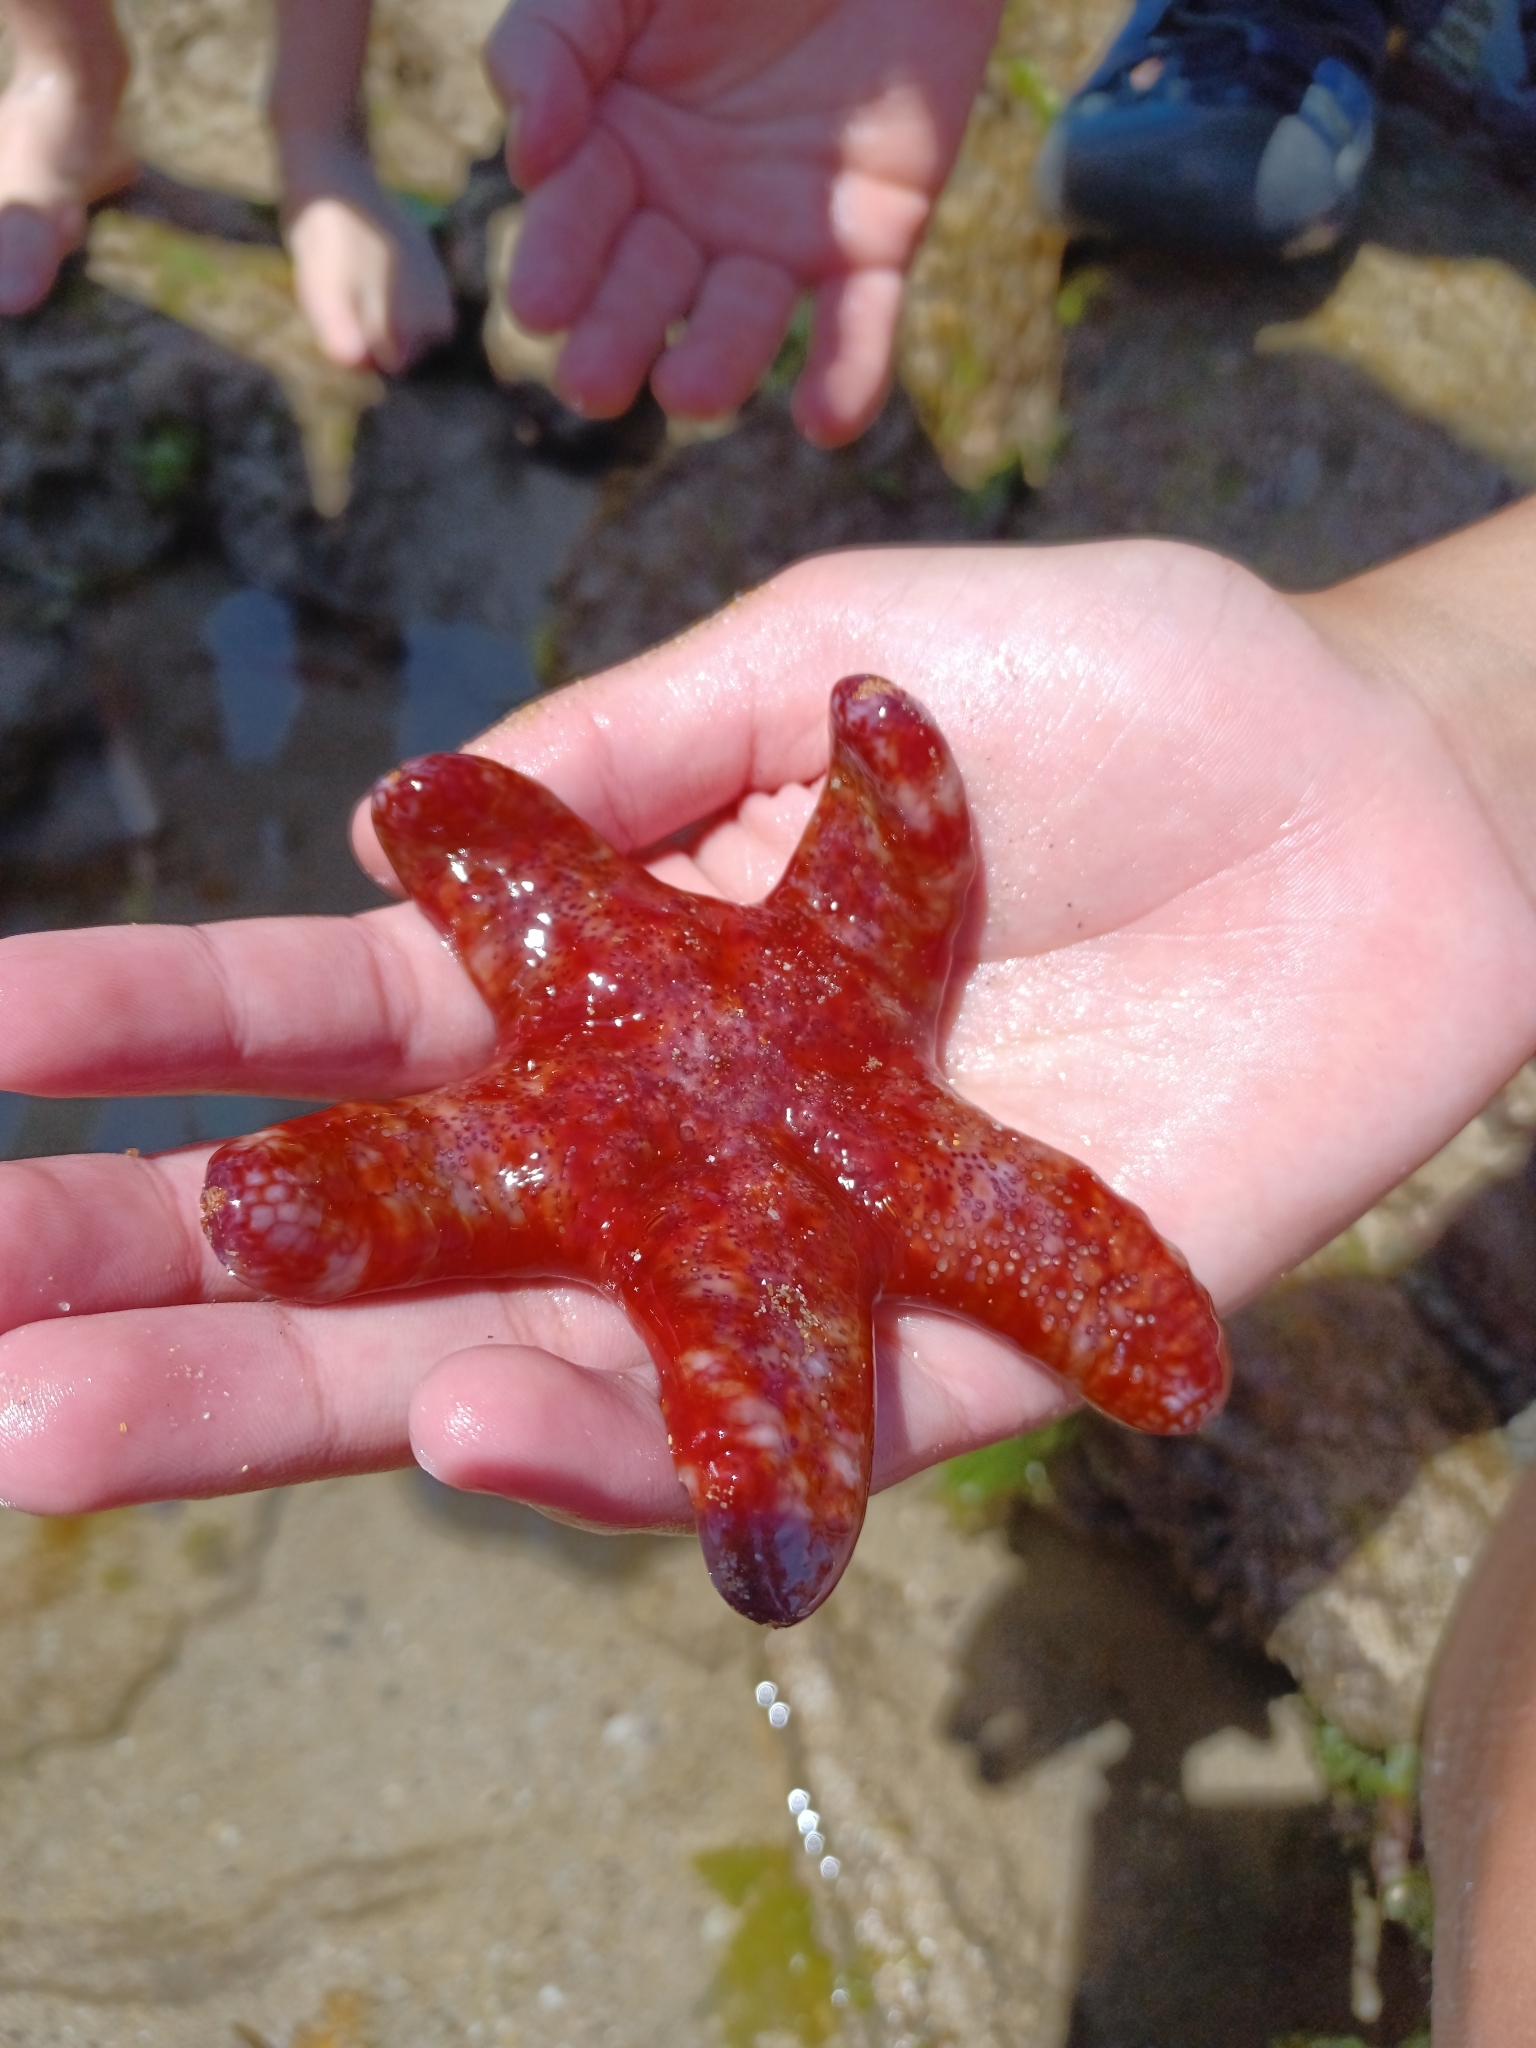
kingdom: Animalia
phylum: Echinodermata
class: Asteroidea
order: Valvatida
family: Asteropseidae
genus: Petricia
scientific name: Petricia vernicina
